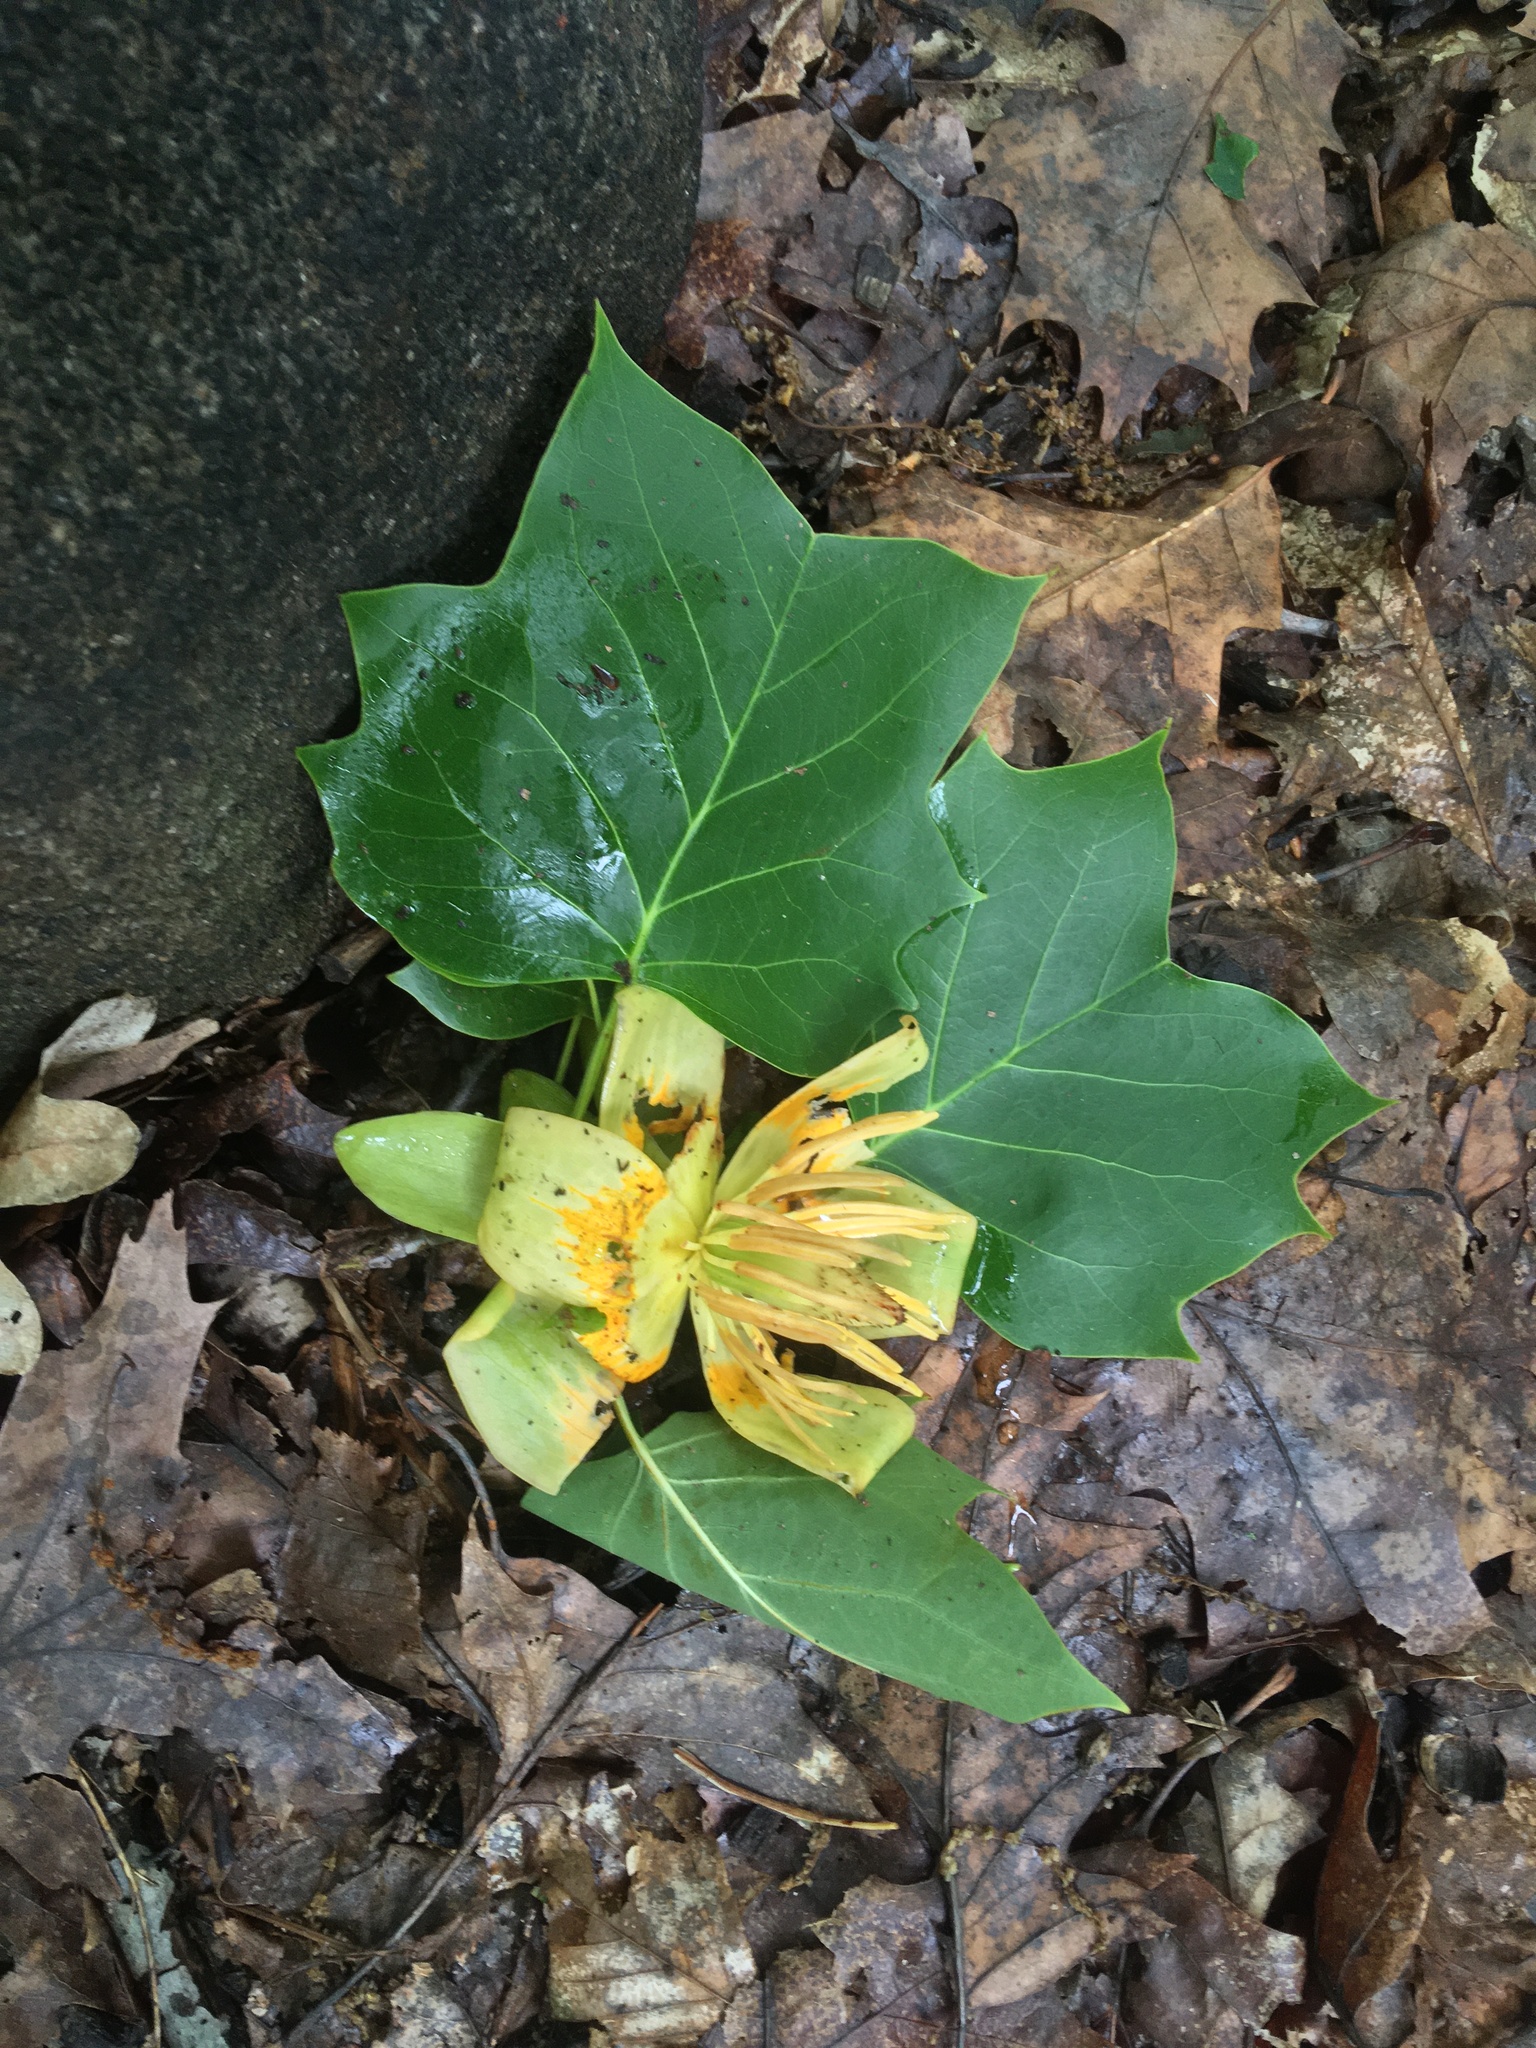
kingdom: Plantae
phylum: Tracheophyta
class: Magnoliopsida
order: Magnoliales
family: Magnoliaceae
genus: Liriodendron
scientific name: Liriodendron tulipifera
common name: Tulip tree
